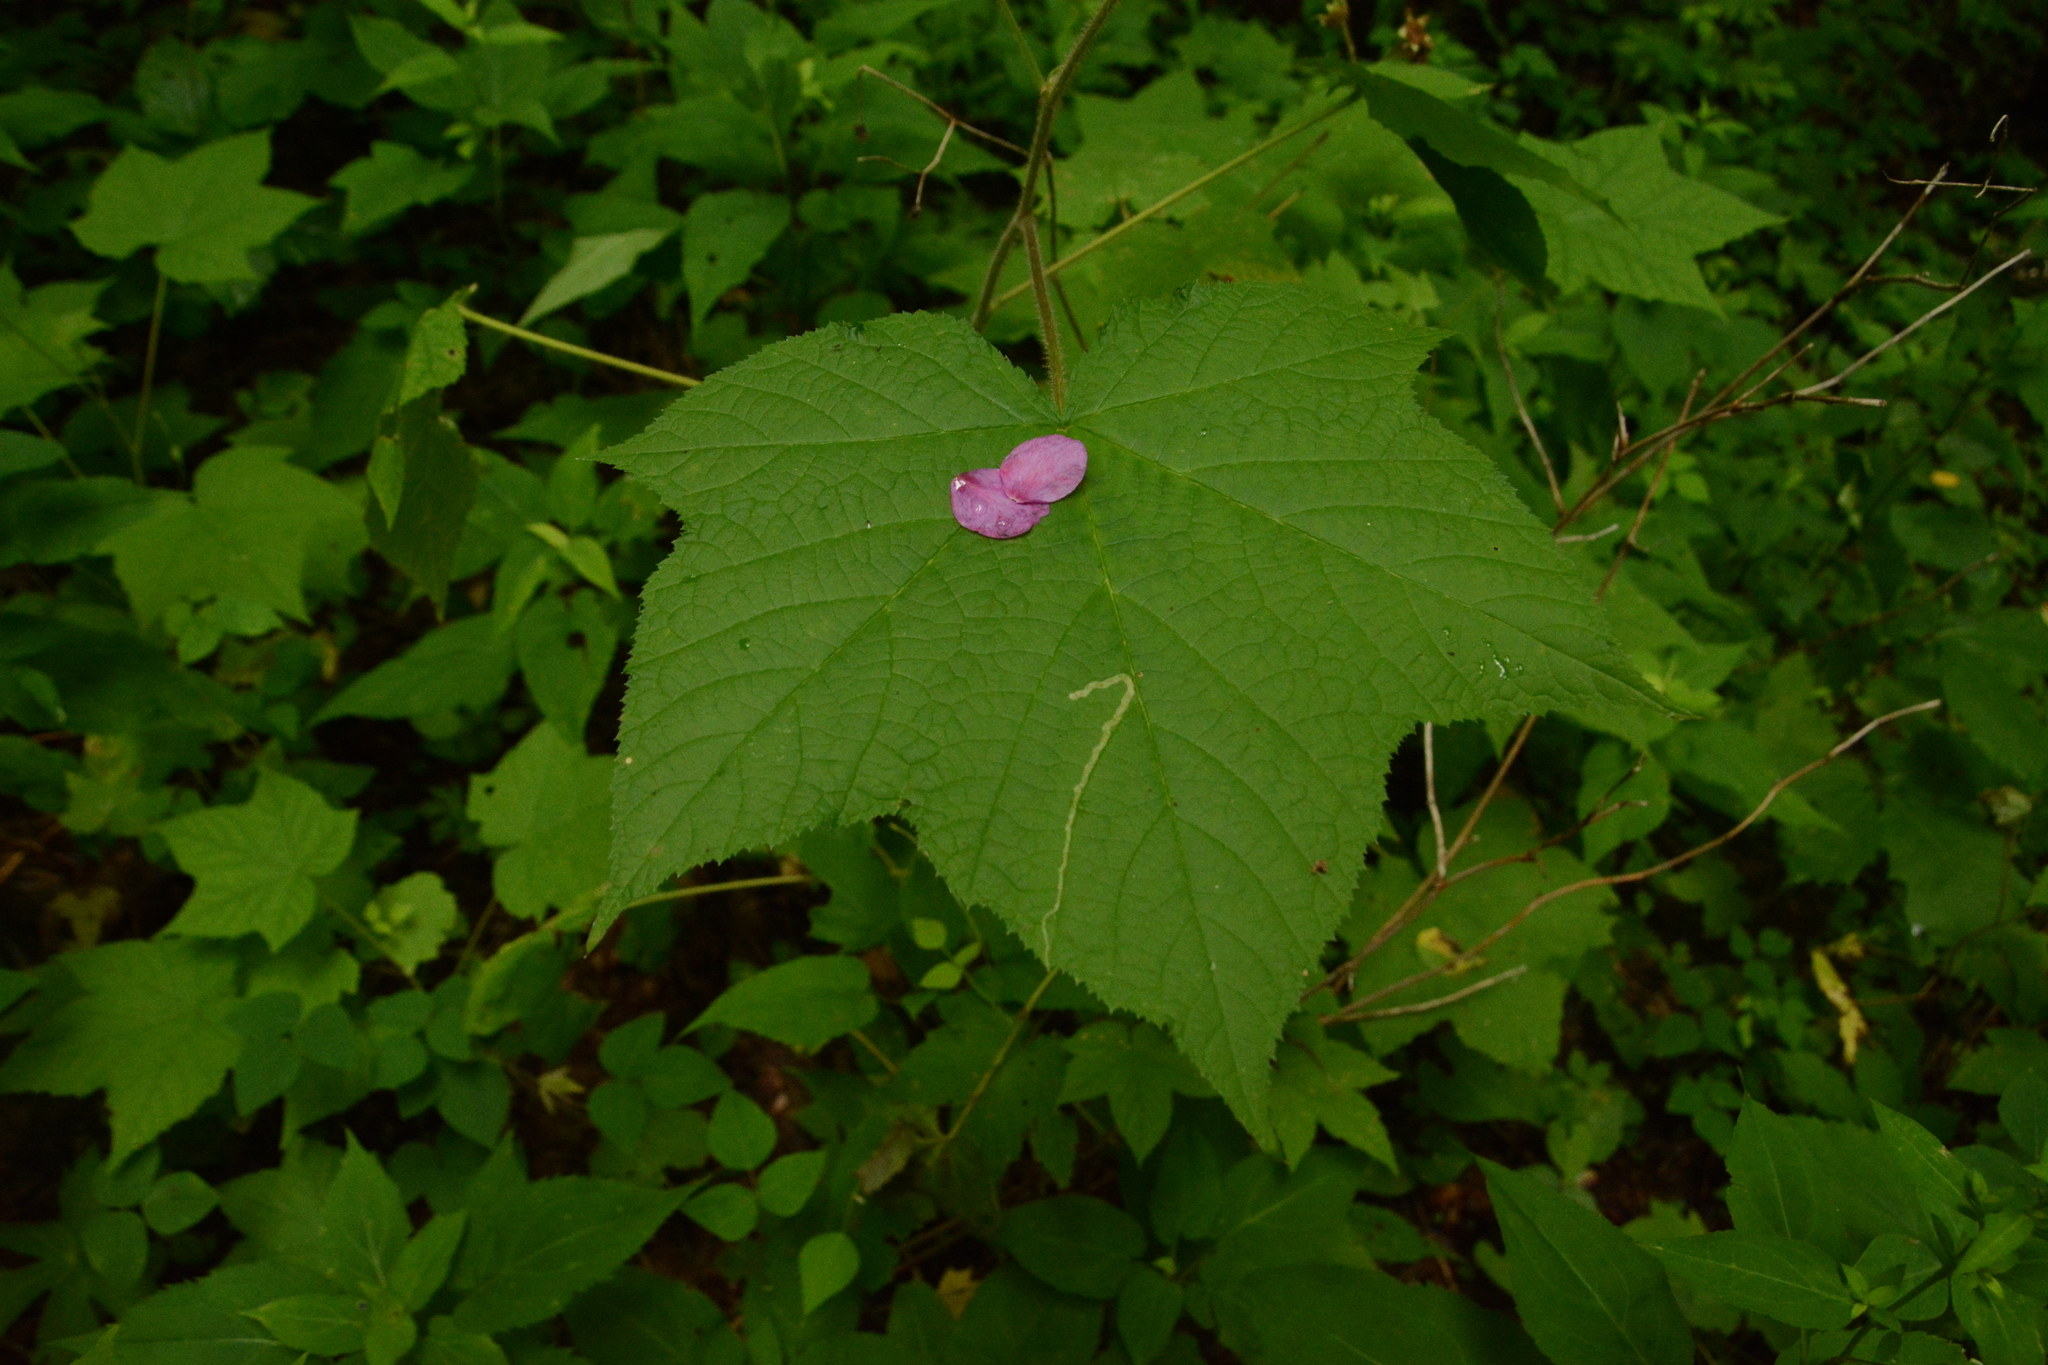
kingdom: Plantae
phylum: Tracheophyta
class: Magnoliopsida
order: Rosales
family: Rosaceae
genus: Rubus
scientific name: Rubus odoratus
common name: Purple-flowered raspberry
